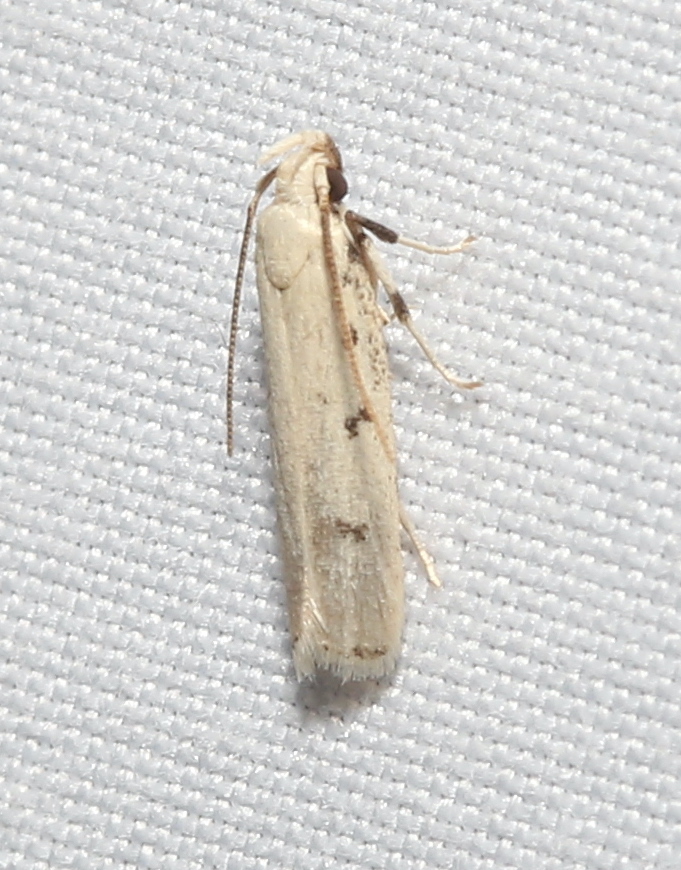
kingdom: Animalia
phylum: Arthropoda
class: Insecta
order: Lepidoptera
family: Autostichidae
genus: Glyphidocera
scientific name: Glyphidocera lactiflosella
